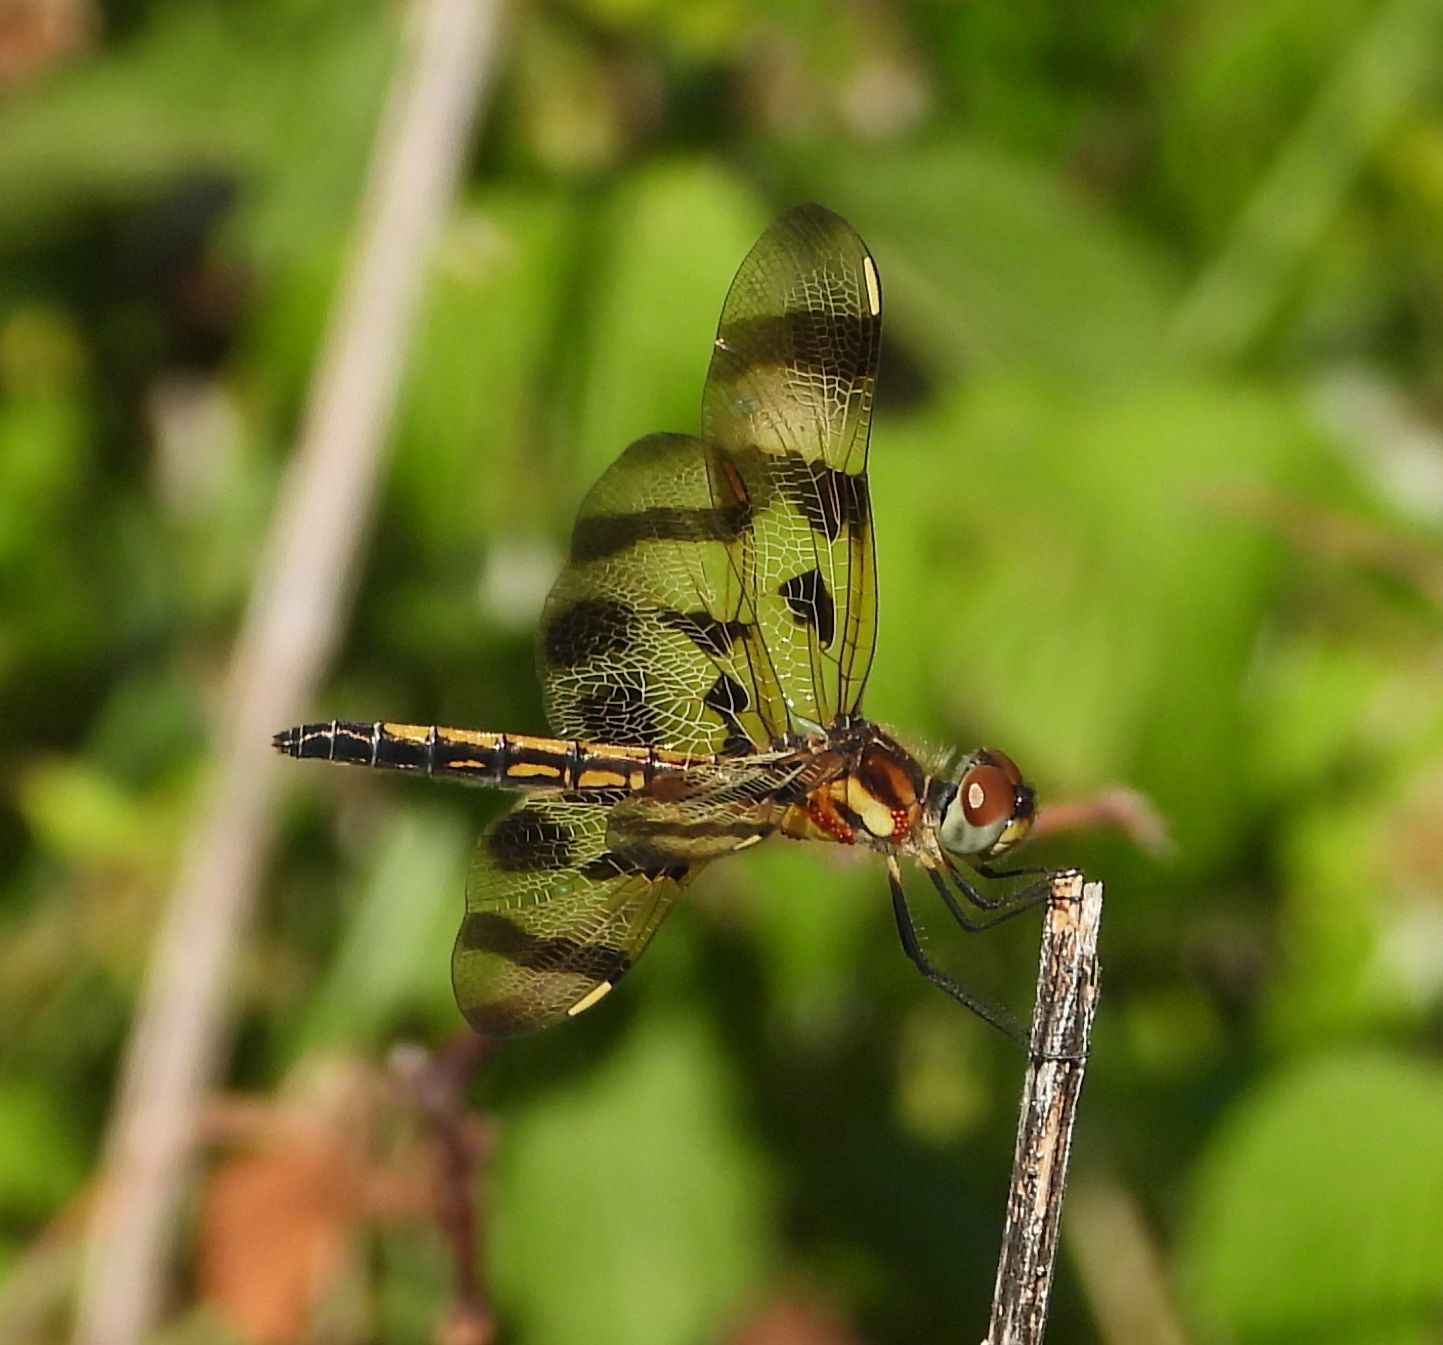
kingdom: Animalia
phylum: Arthropoda
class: Insecta
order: Odonata
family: Libellulidae
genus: Celithemis
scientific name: Celithemis eponina
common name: Halloween pennant
